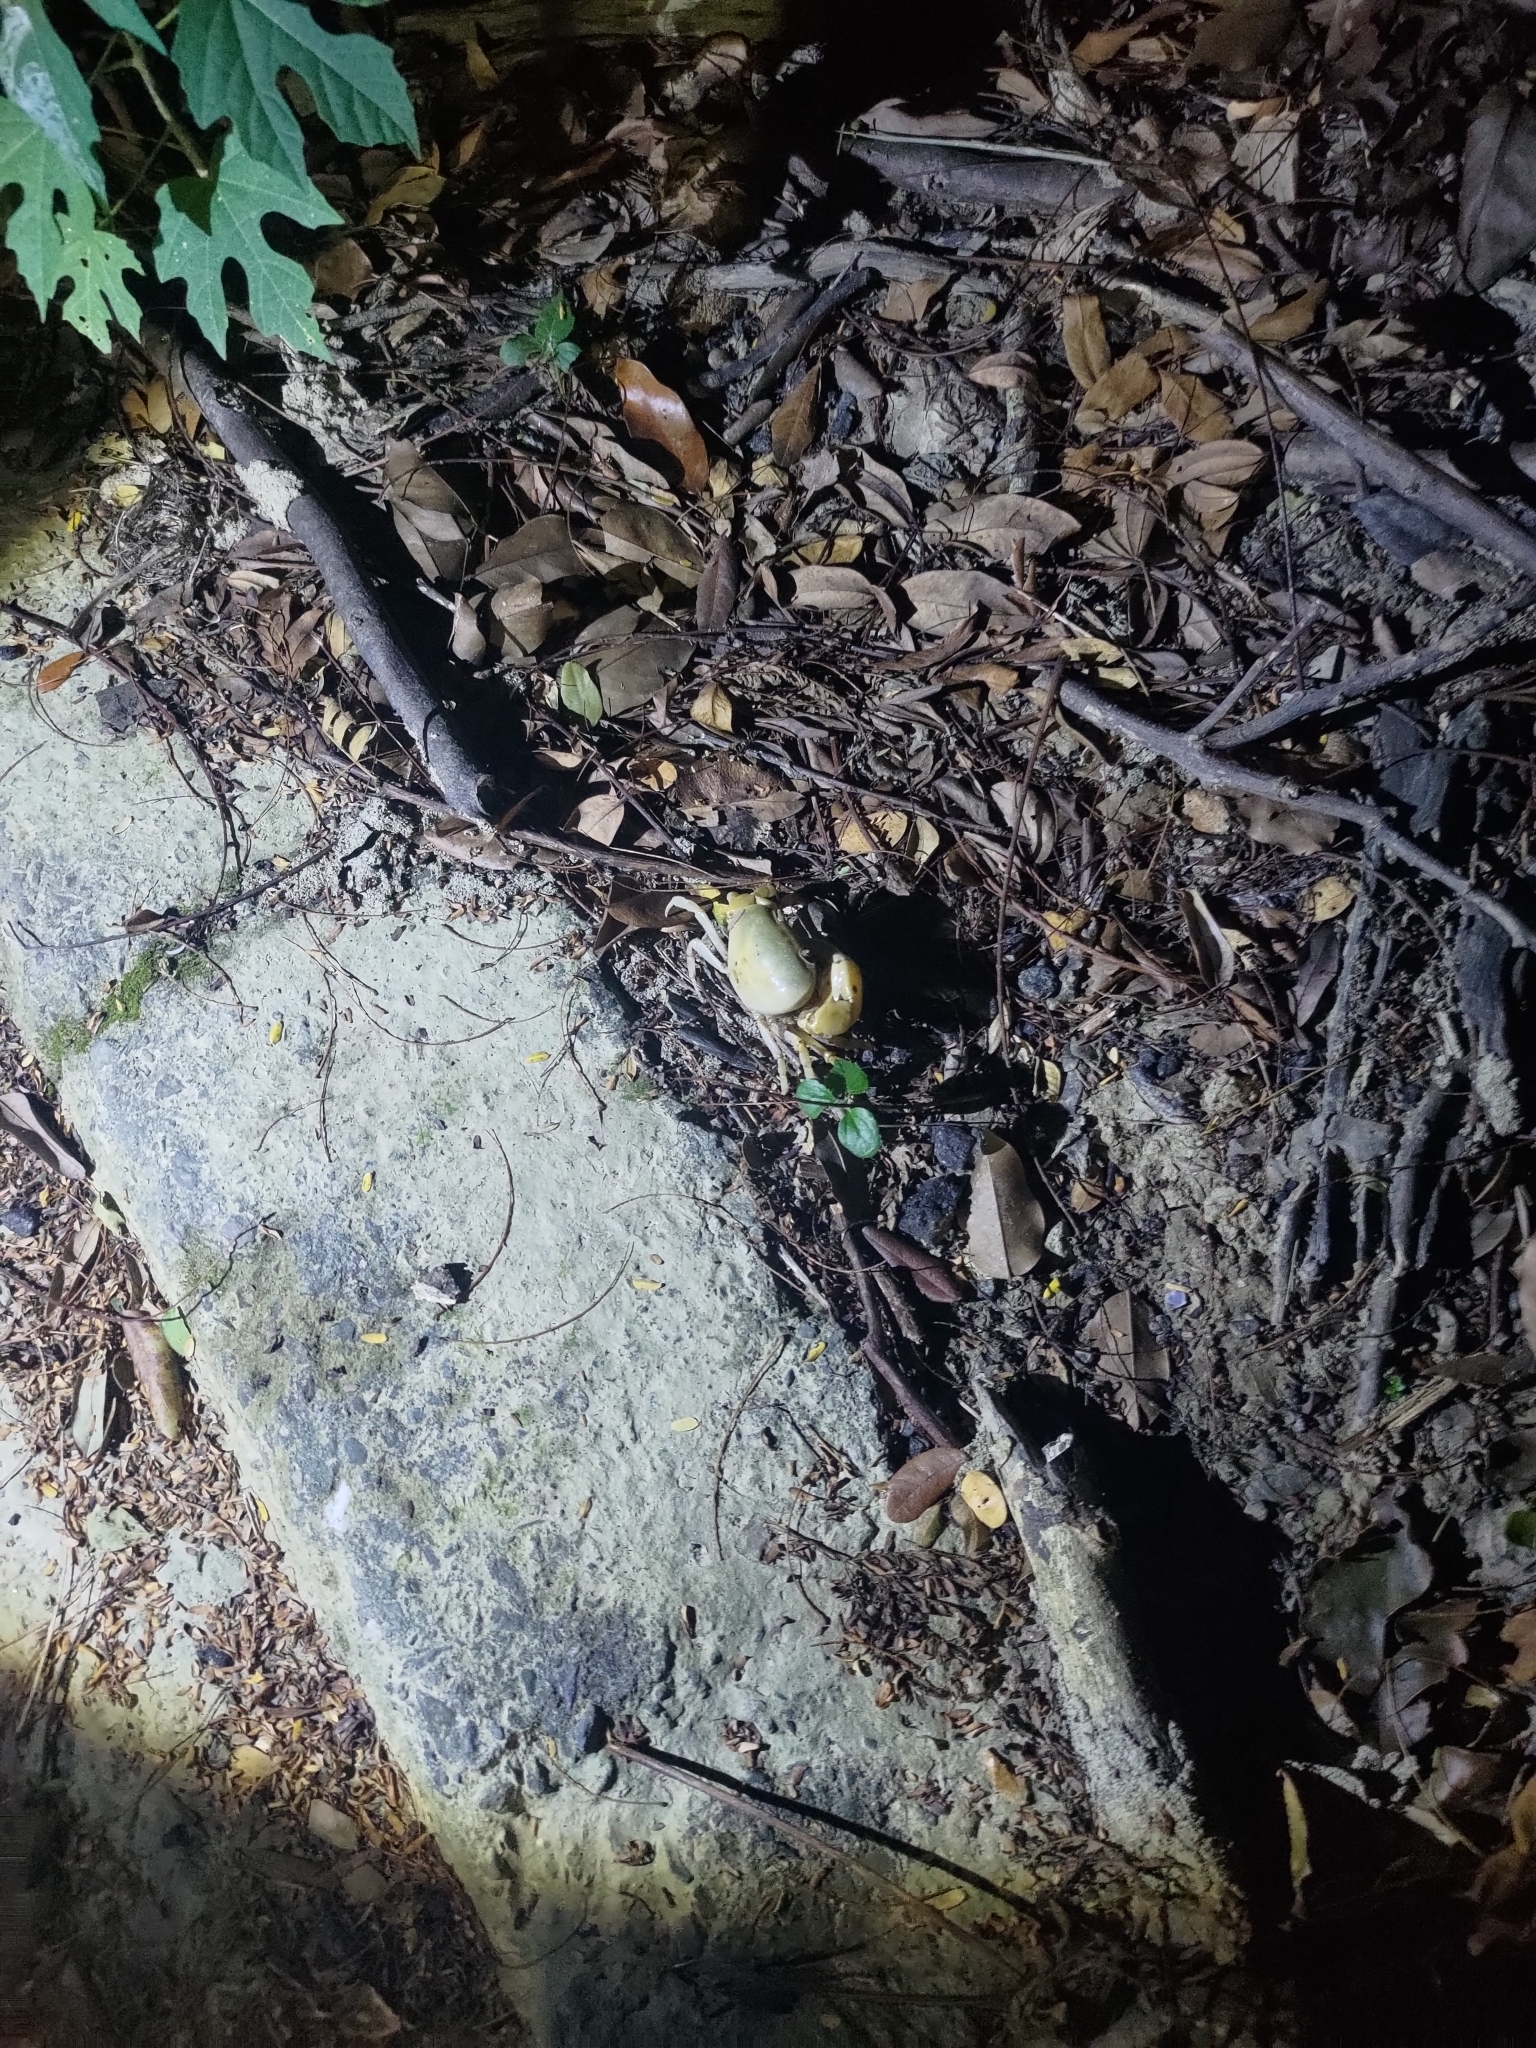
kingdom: Animalia
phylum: Arthropoda
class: Malacostraca
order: Decapoda
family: Potamidae
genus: Geothelphusa
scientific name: Geothelphusa makatao
